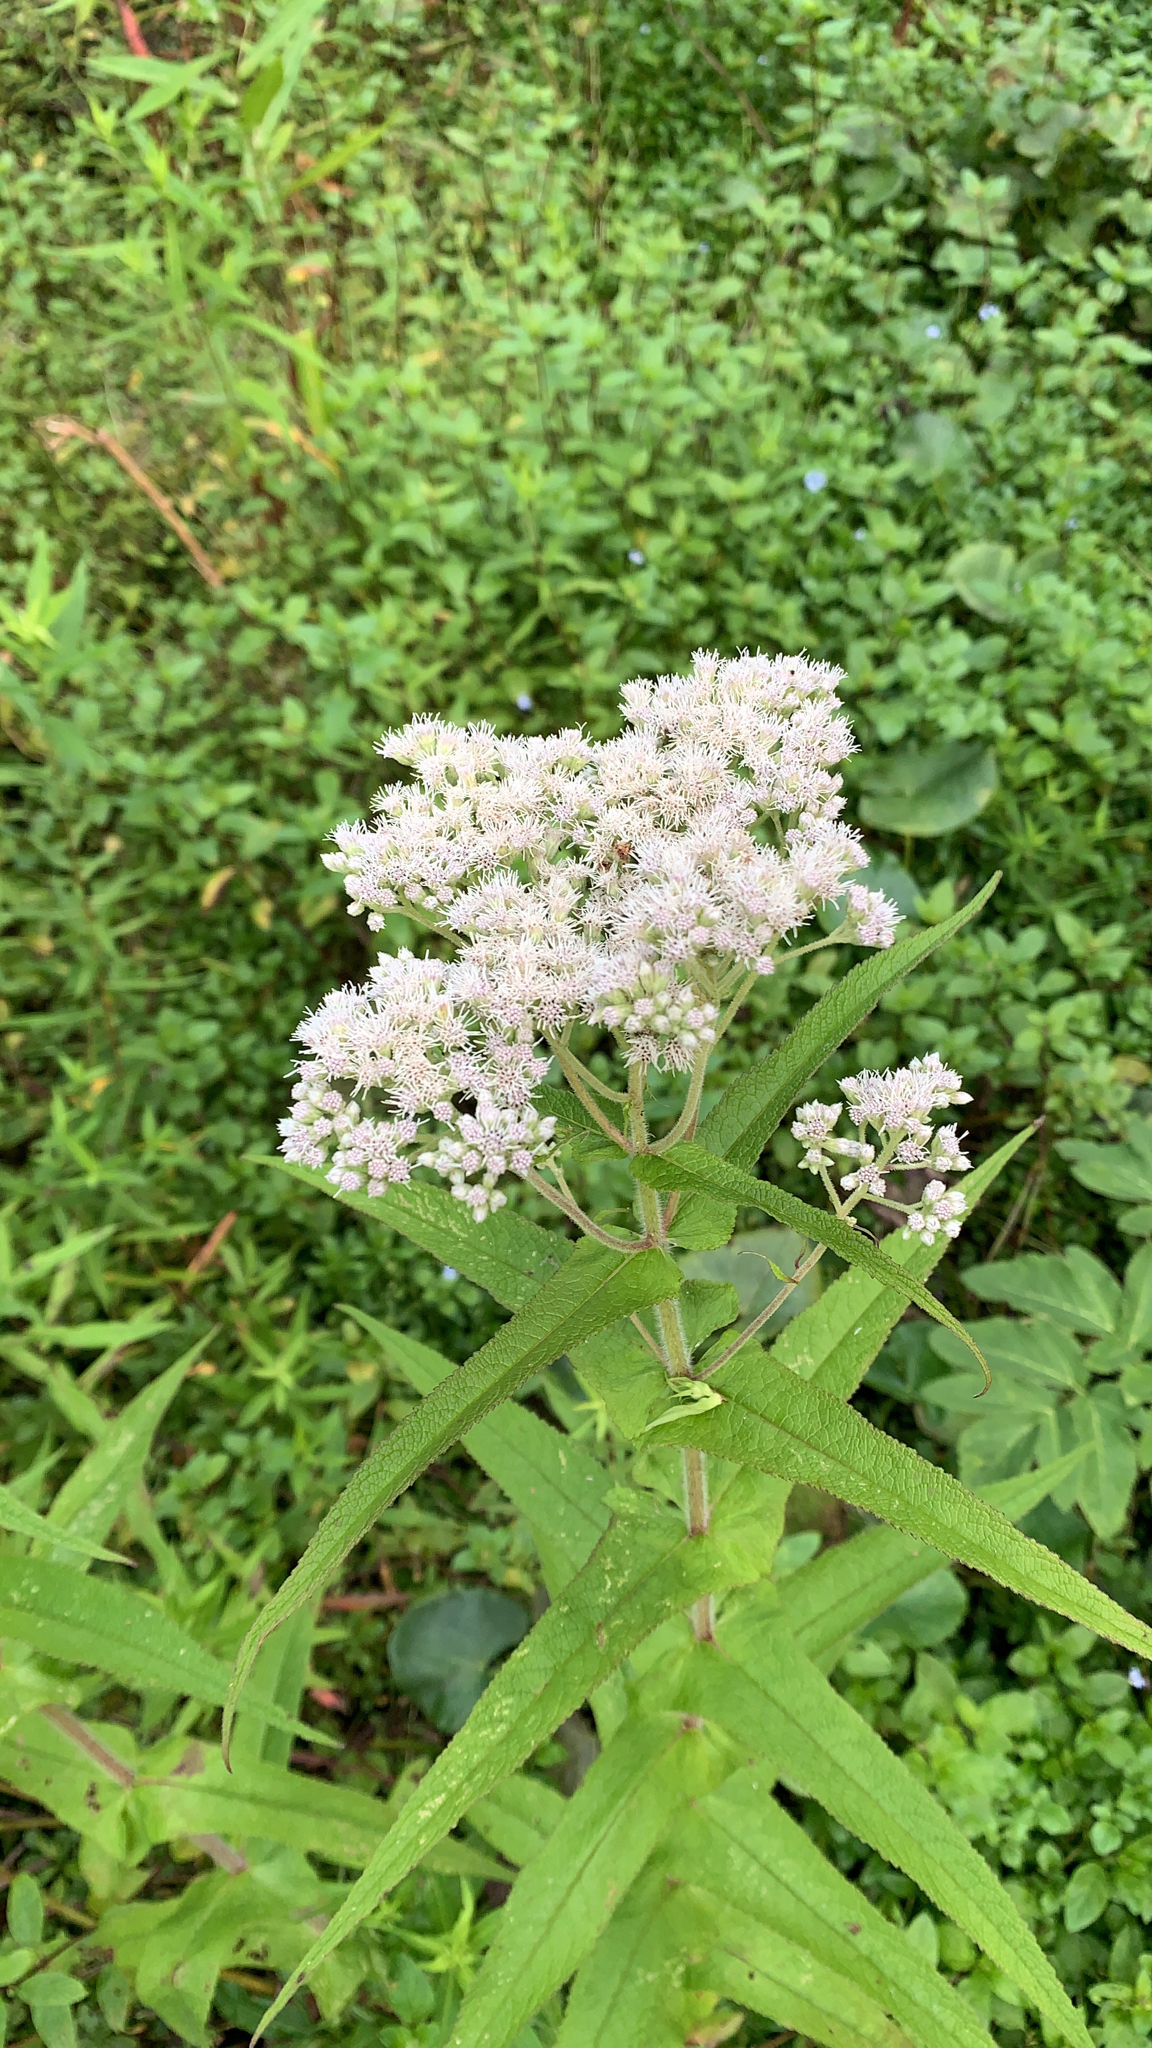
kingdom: Plantae
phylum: Tracheophyta
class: Magnoliopsida
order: Asterales
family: Asteraceae
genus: Eupatorium
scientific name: Eupatorium perfoliatum
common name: Boneset
